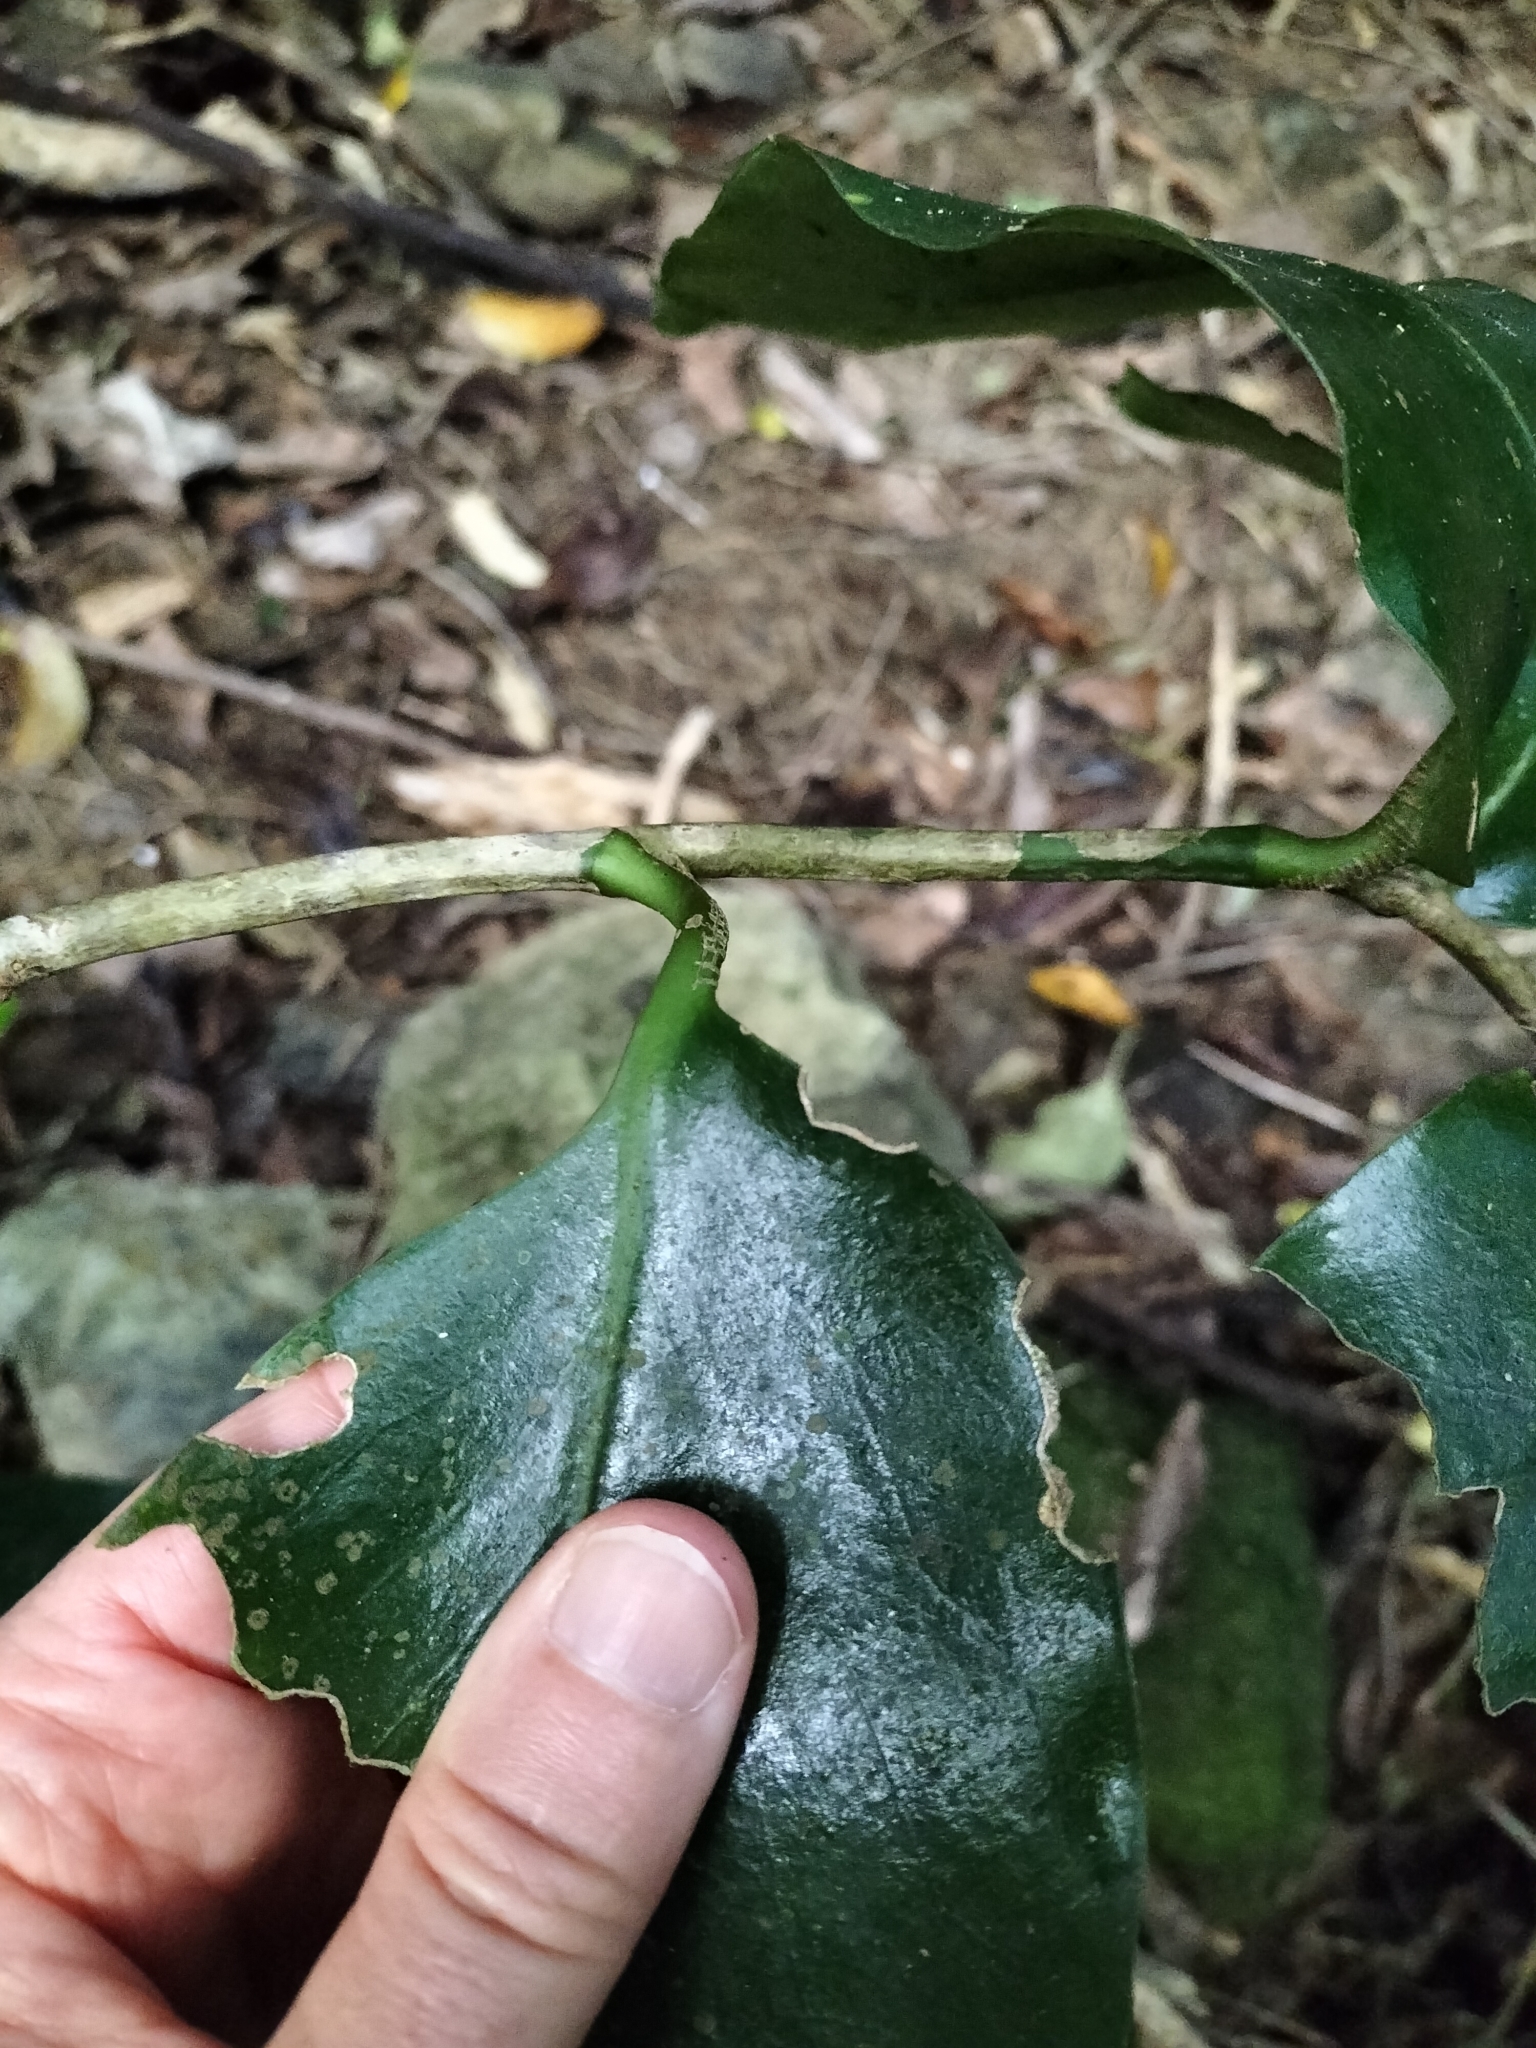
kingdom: Plantae
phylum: Tracheophyta
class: Magnoliopsida
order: Apiales
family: Griseliniaceae
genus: Griselinia
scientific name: Griselinia lucida
